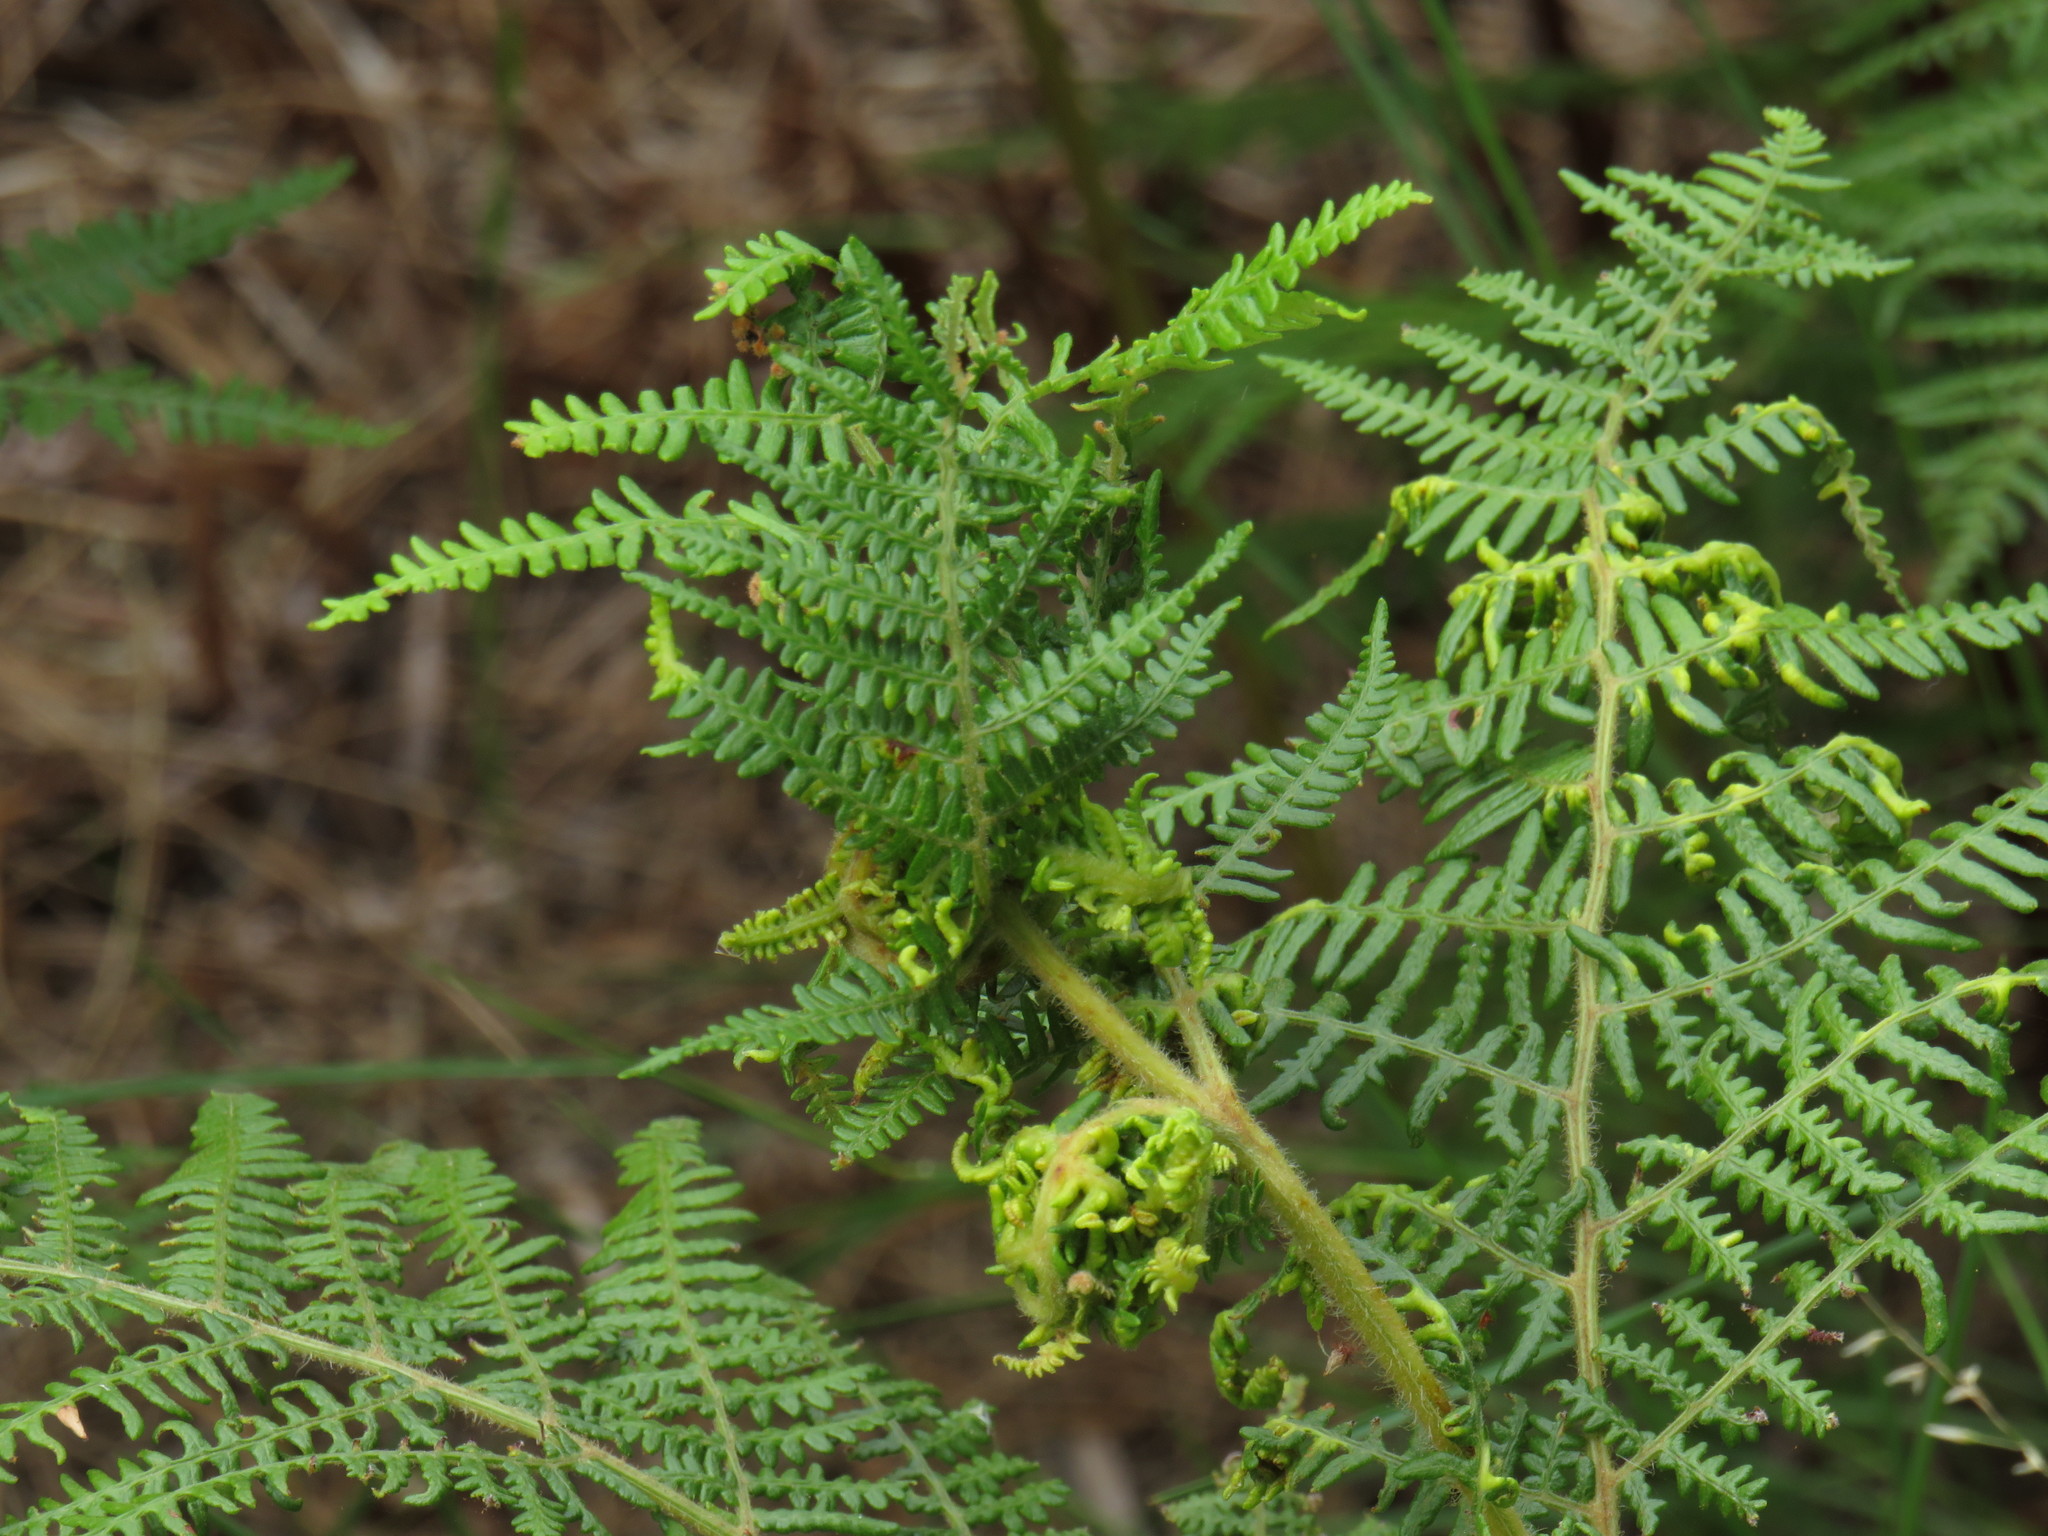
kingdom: Animalia
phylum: Arthropoda
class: Arachnida
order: Trombidiformes
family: Eriophyidae
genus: Eriophyes
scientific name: Eriophyes
